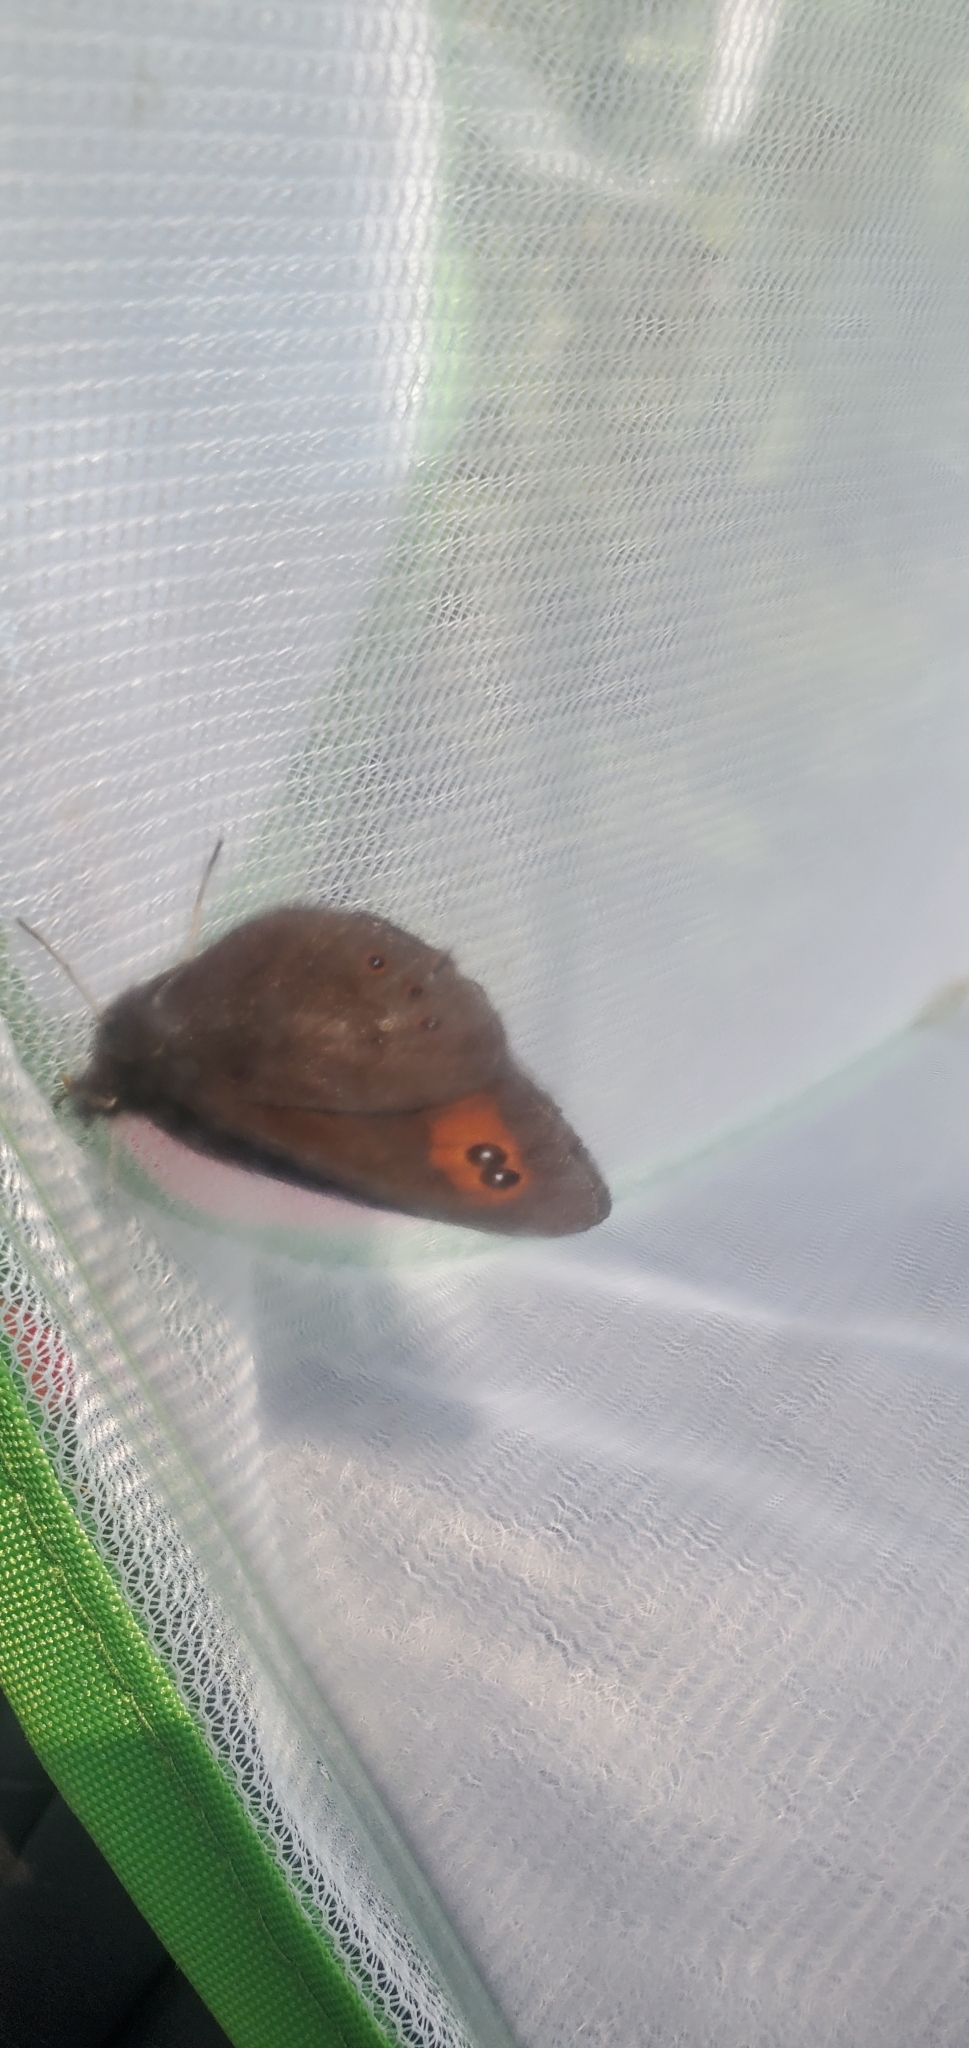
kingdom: Animalia
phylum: Arthropoda
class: Insecta
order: Lepidoptera
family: Nymphalidae
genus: Erebia
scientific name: Erebia epipsodea
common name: Common alpine
